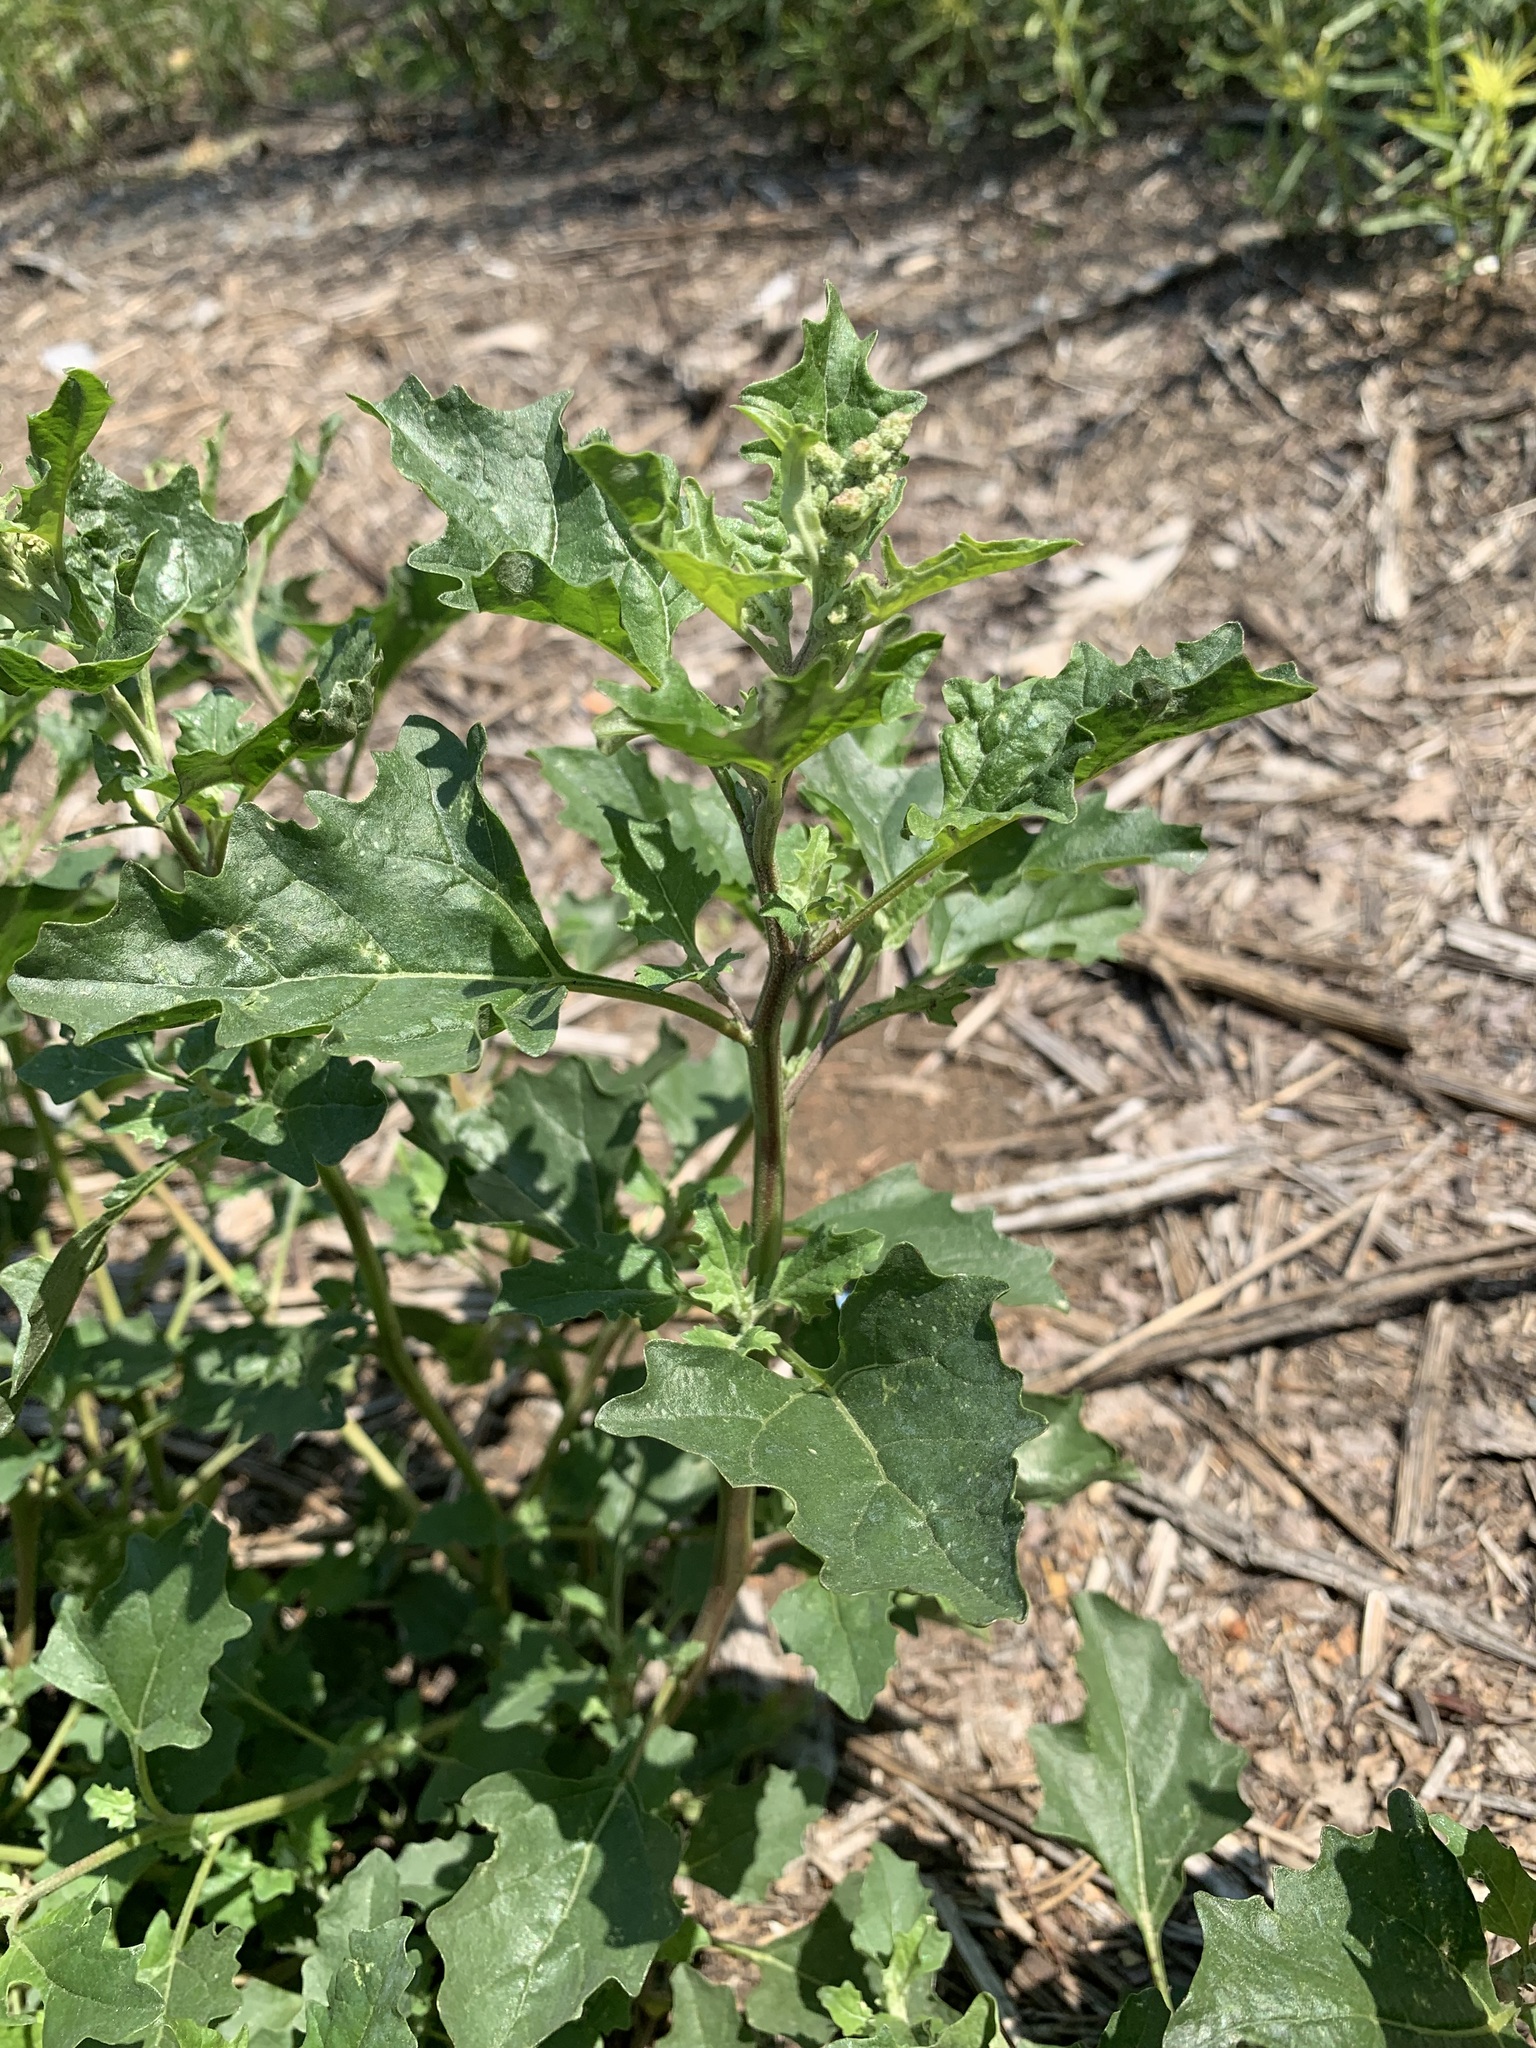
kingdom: Plantae
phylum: Tracheophyta
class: Magnoliopsida
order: Caryophyllales
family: Amaranthaceae
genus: Atriplex
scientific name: Atriplex tatarica
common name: Tatarian orache
